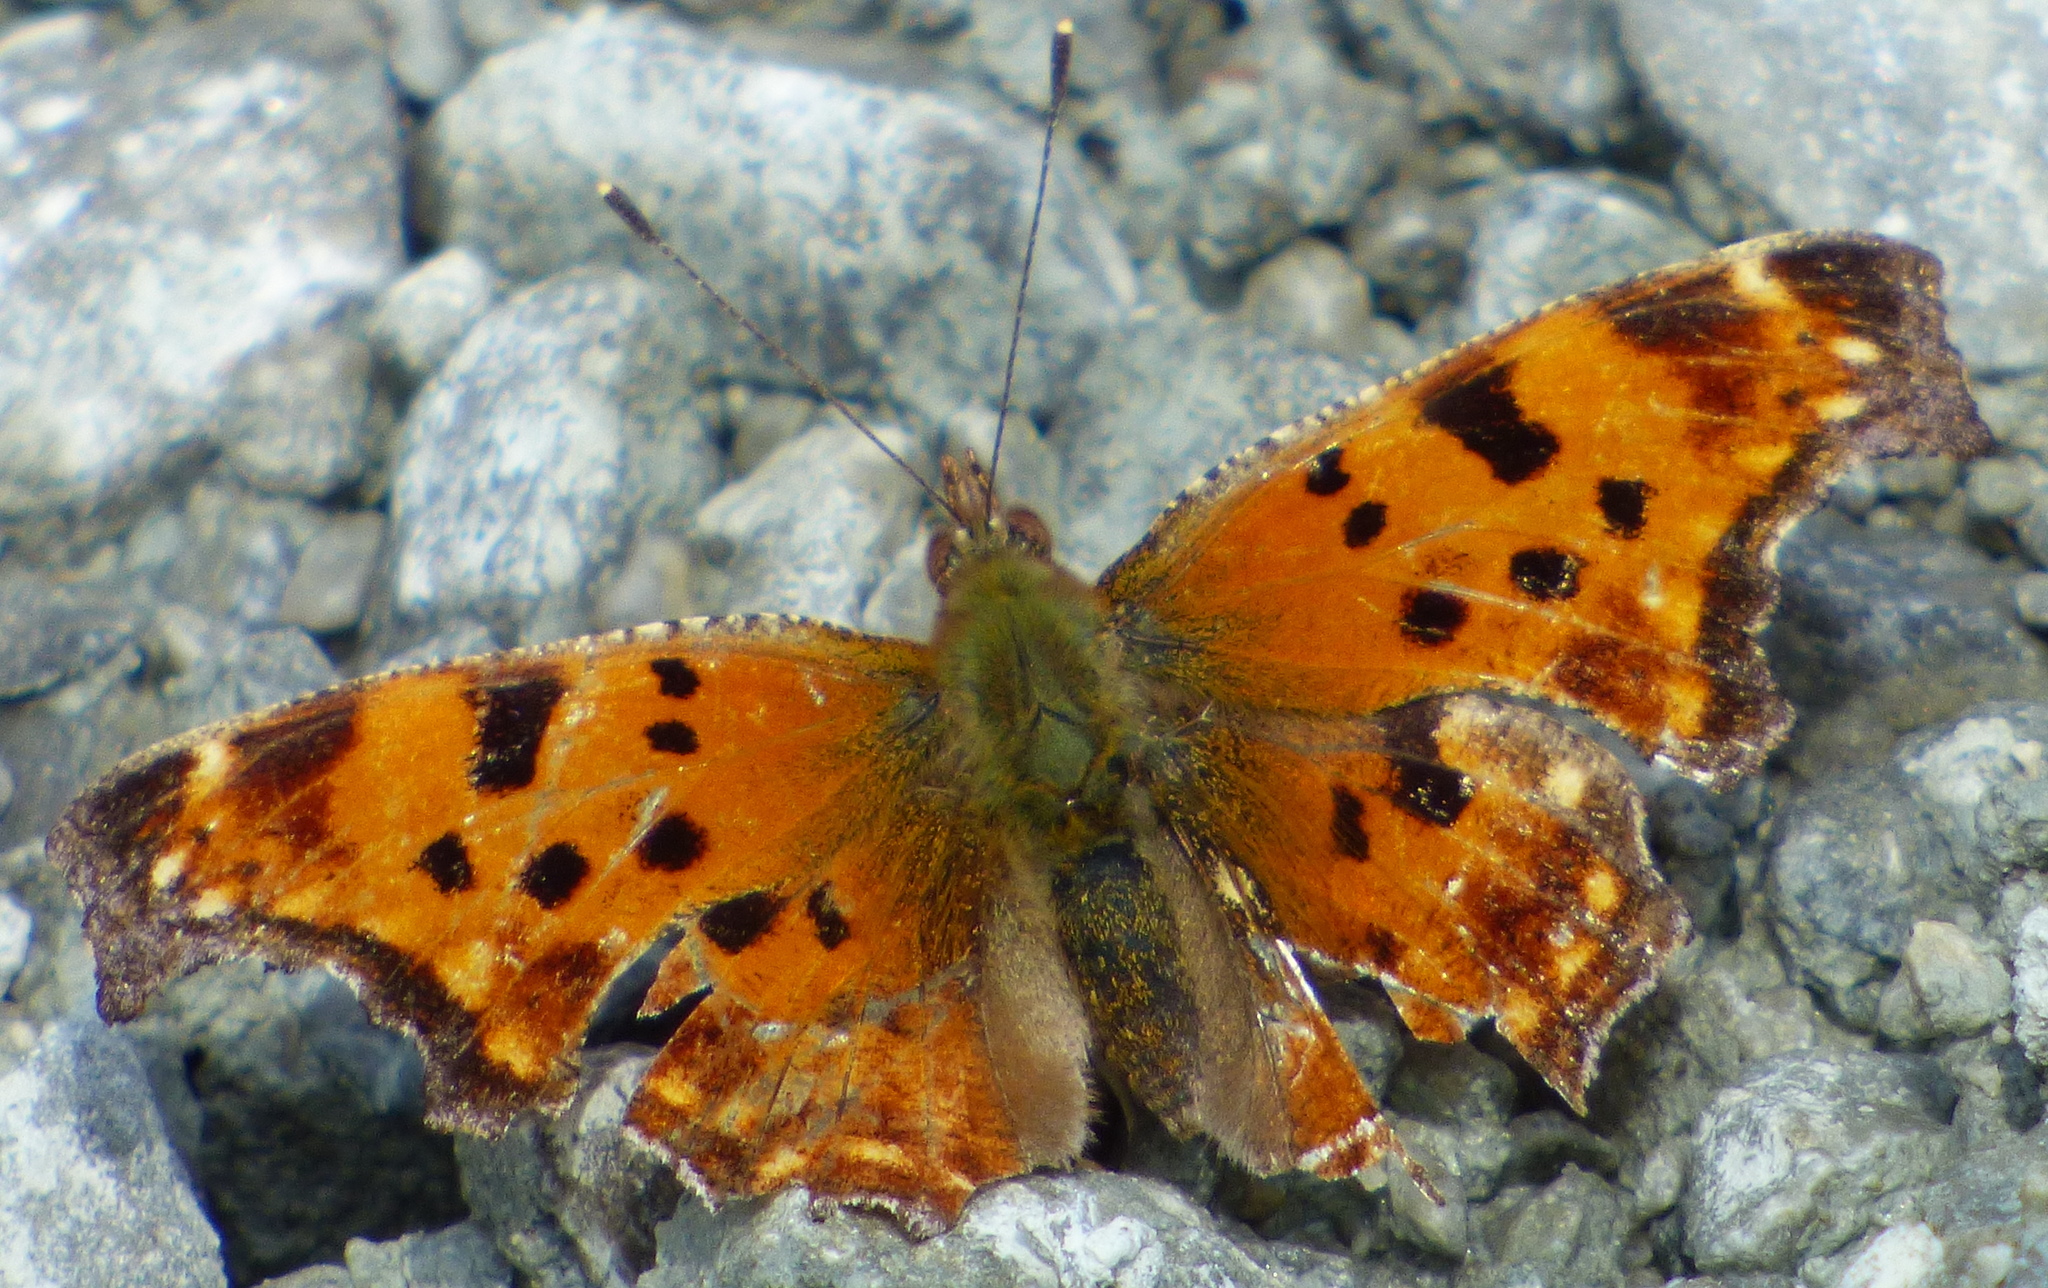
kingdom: Animalia
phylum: Arthropoda
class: Insecta
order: Lepidoptera
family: Nymphalidae
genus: Polygonia
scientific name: Polygonia comma
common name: Eastern comma
